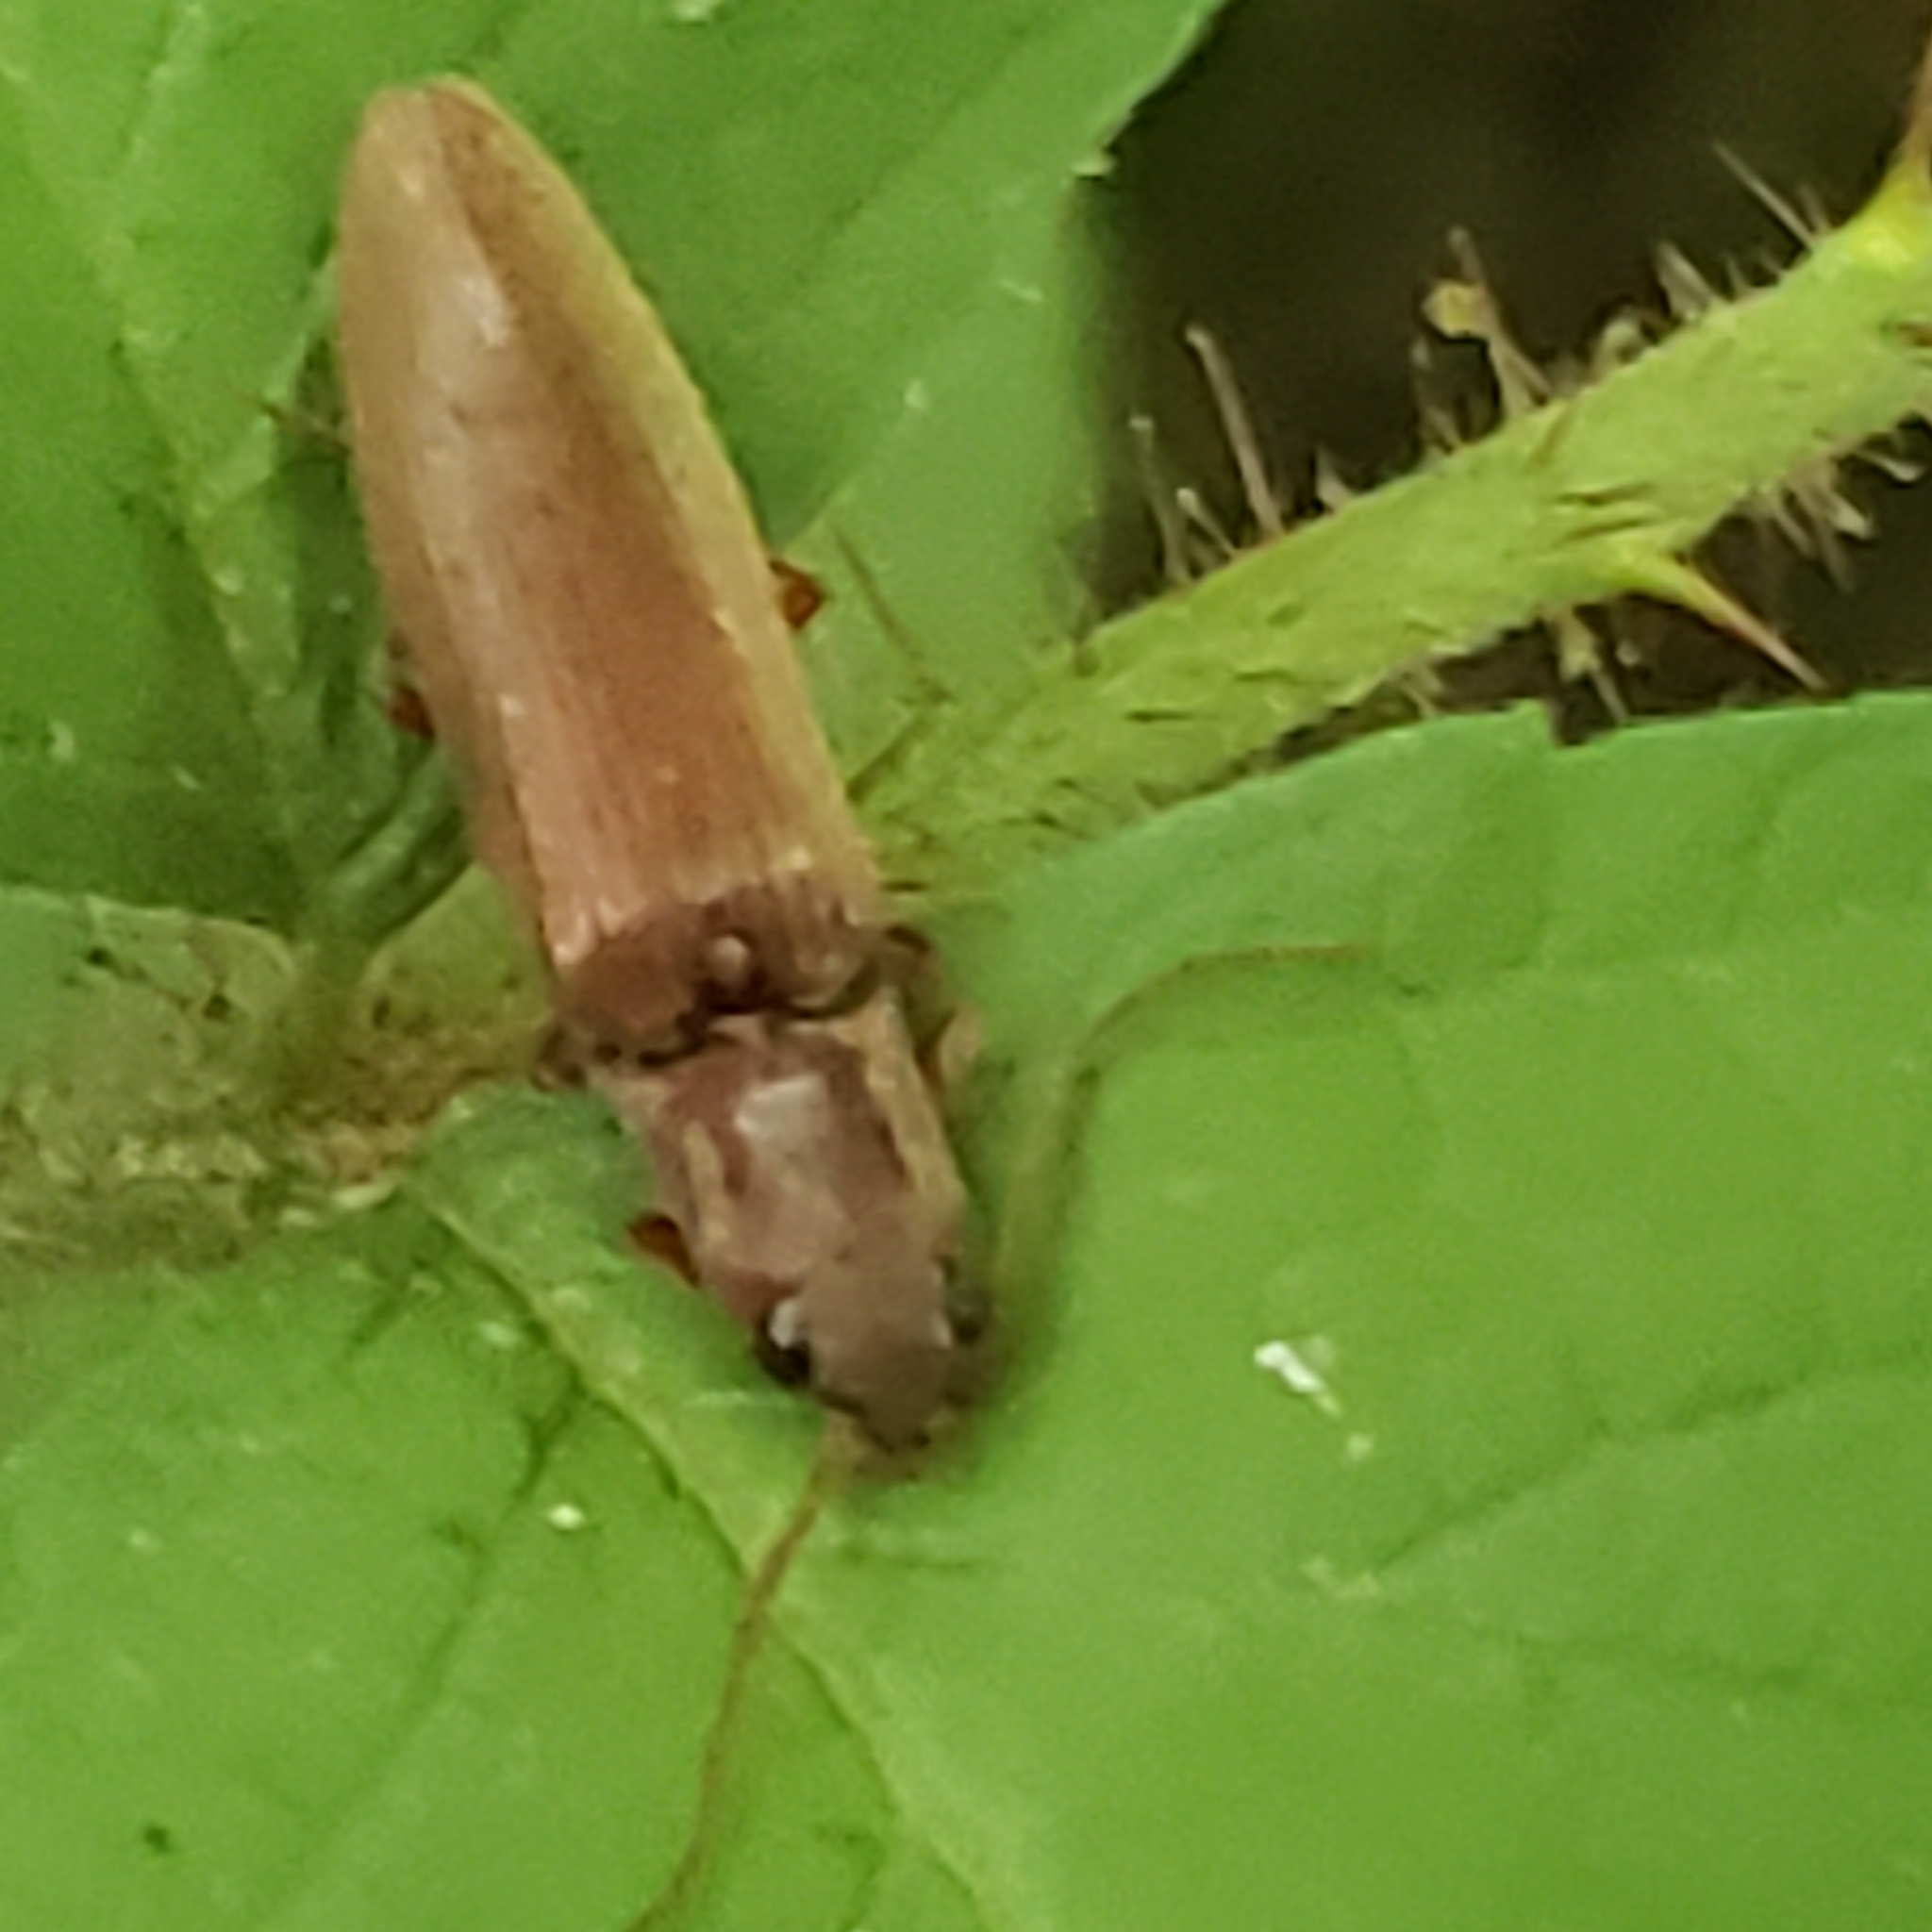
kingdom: Animalia
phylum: Arthropoda
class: Insecta
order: Coleoptera
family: Elateridae
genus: Proludius
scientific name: Proludius pyrros
